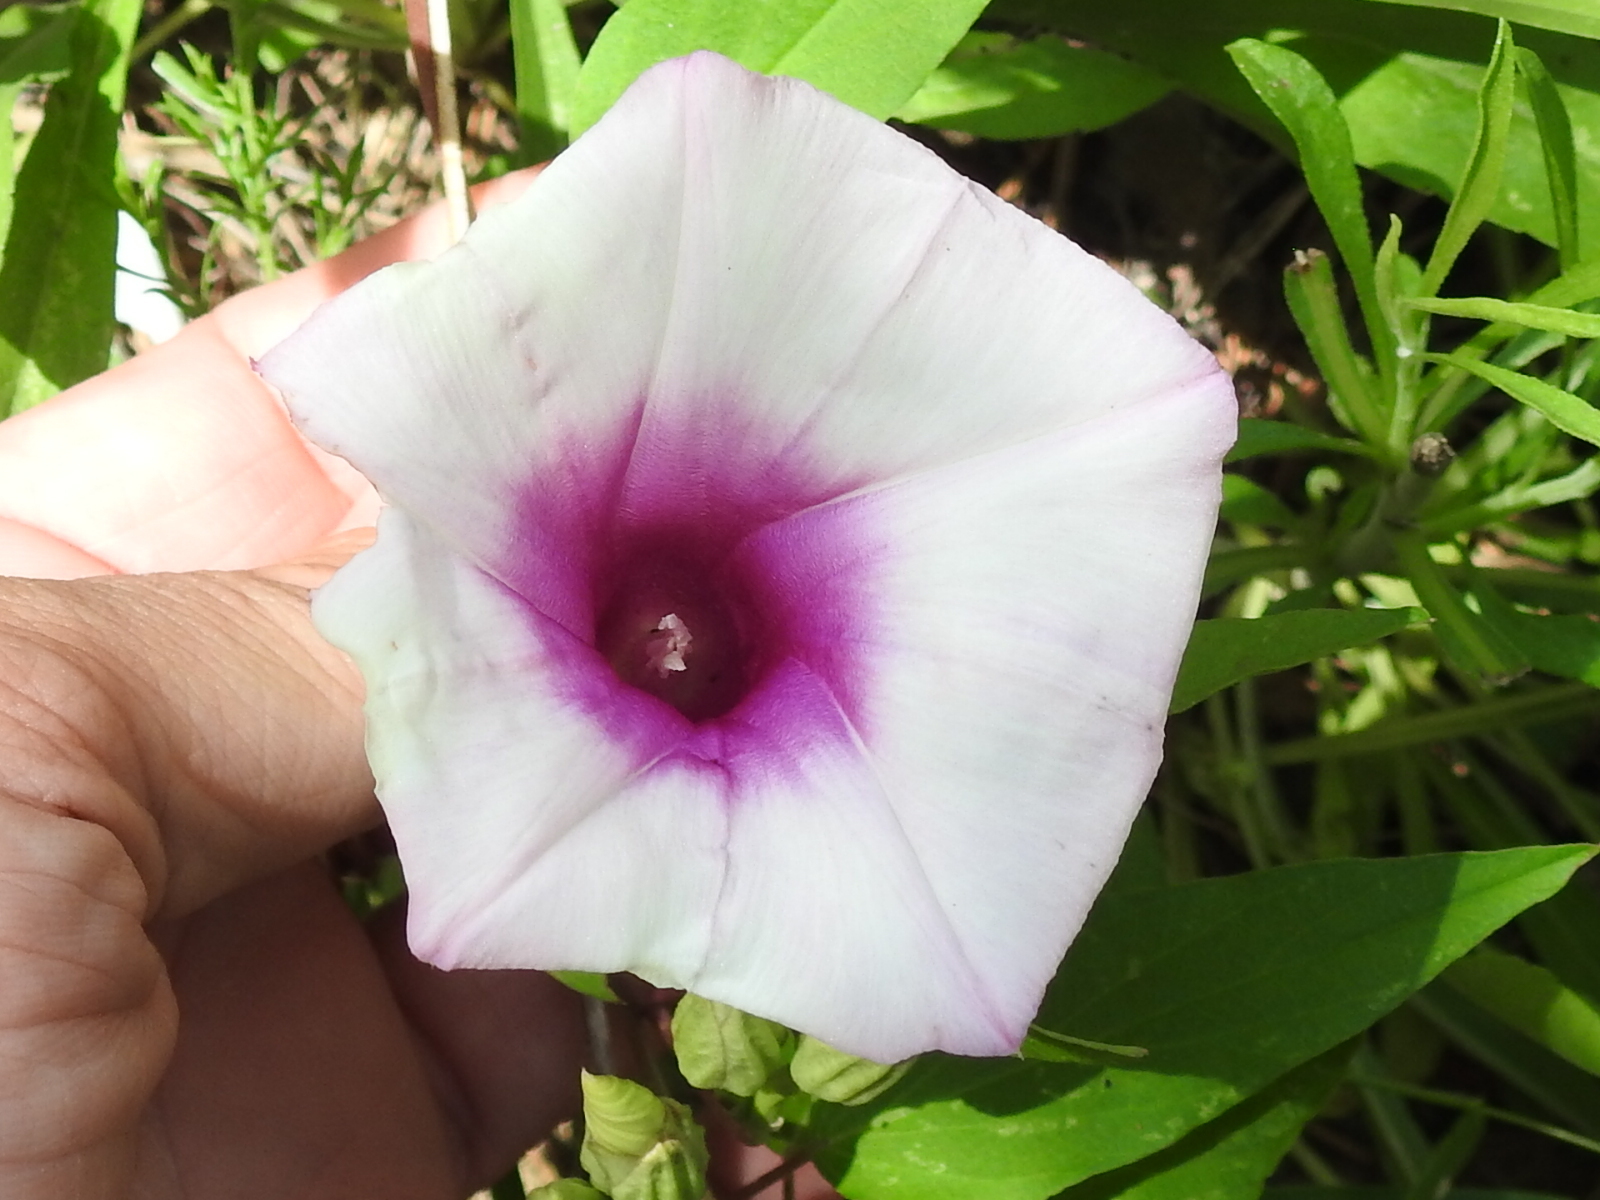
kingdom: Plantae
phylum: Tracheophyta
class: Magnoliopsida
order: Solanales
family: Convolvulaceae
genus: Ipomoea
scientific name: Ipomoea shumardiana
